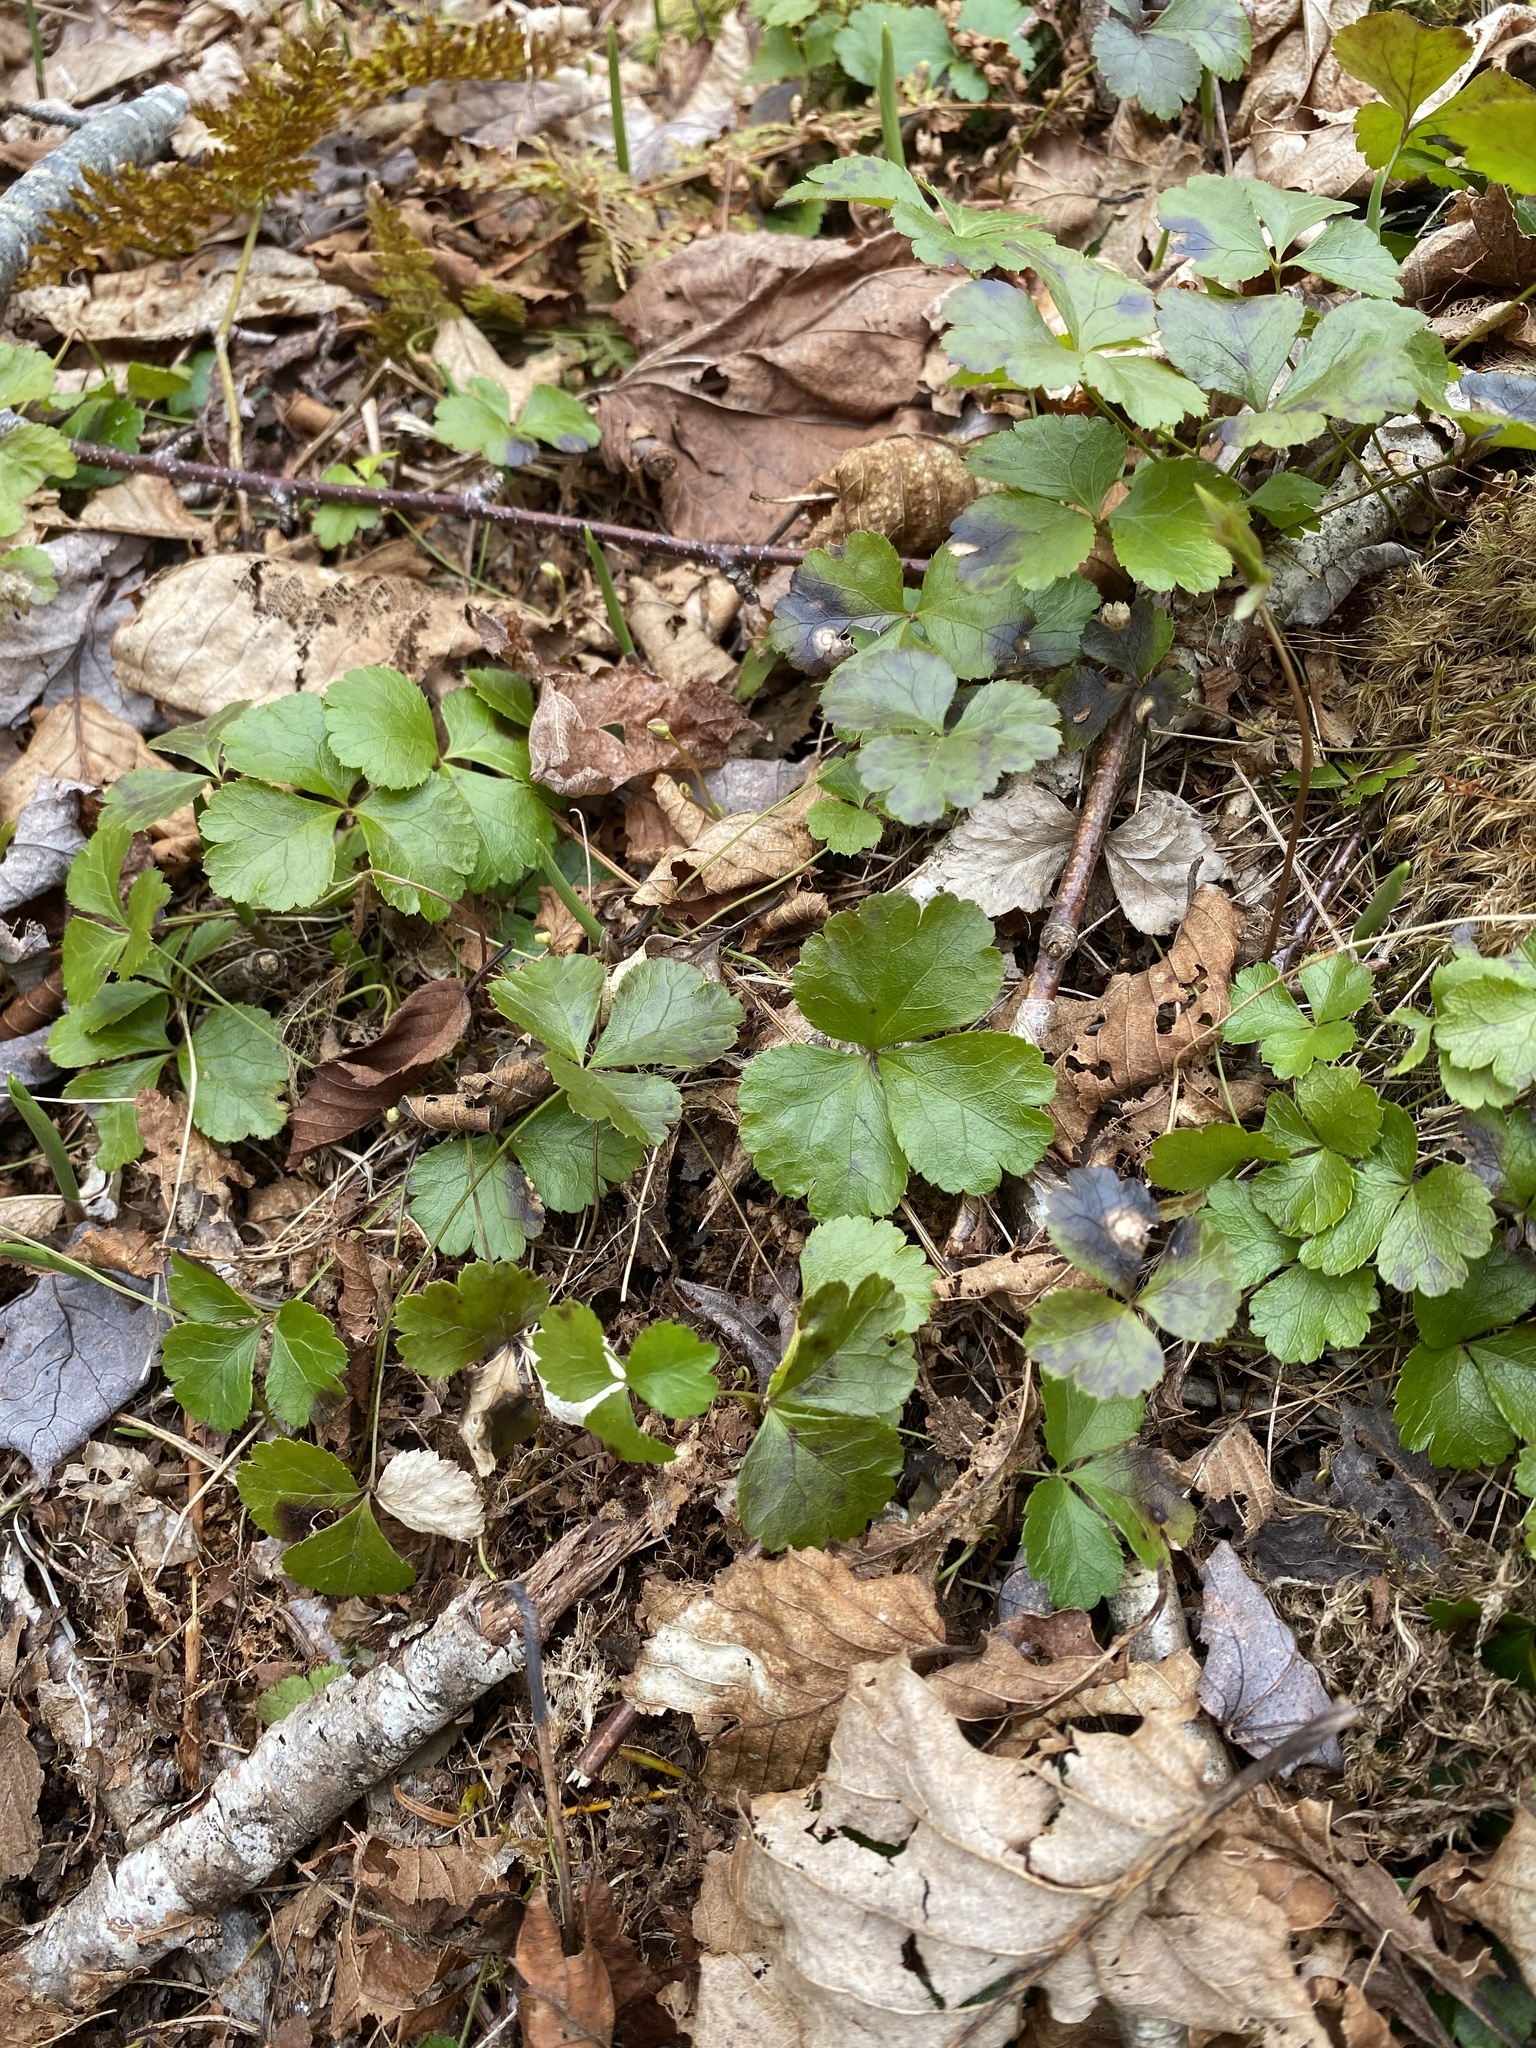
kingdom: Plantae
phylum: Tracheophyta
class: Magnoliopsida
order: Ranunculales
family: Ranunculaceae
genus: Coptis
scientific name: Coptis trifolia
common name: Canker-root
